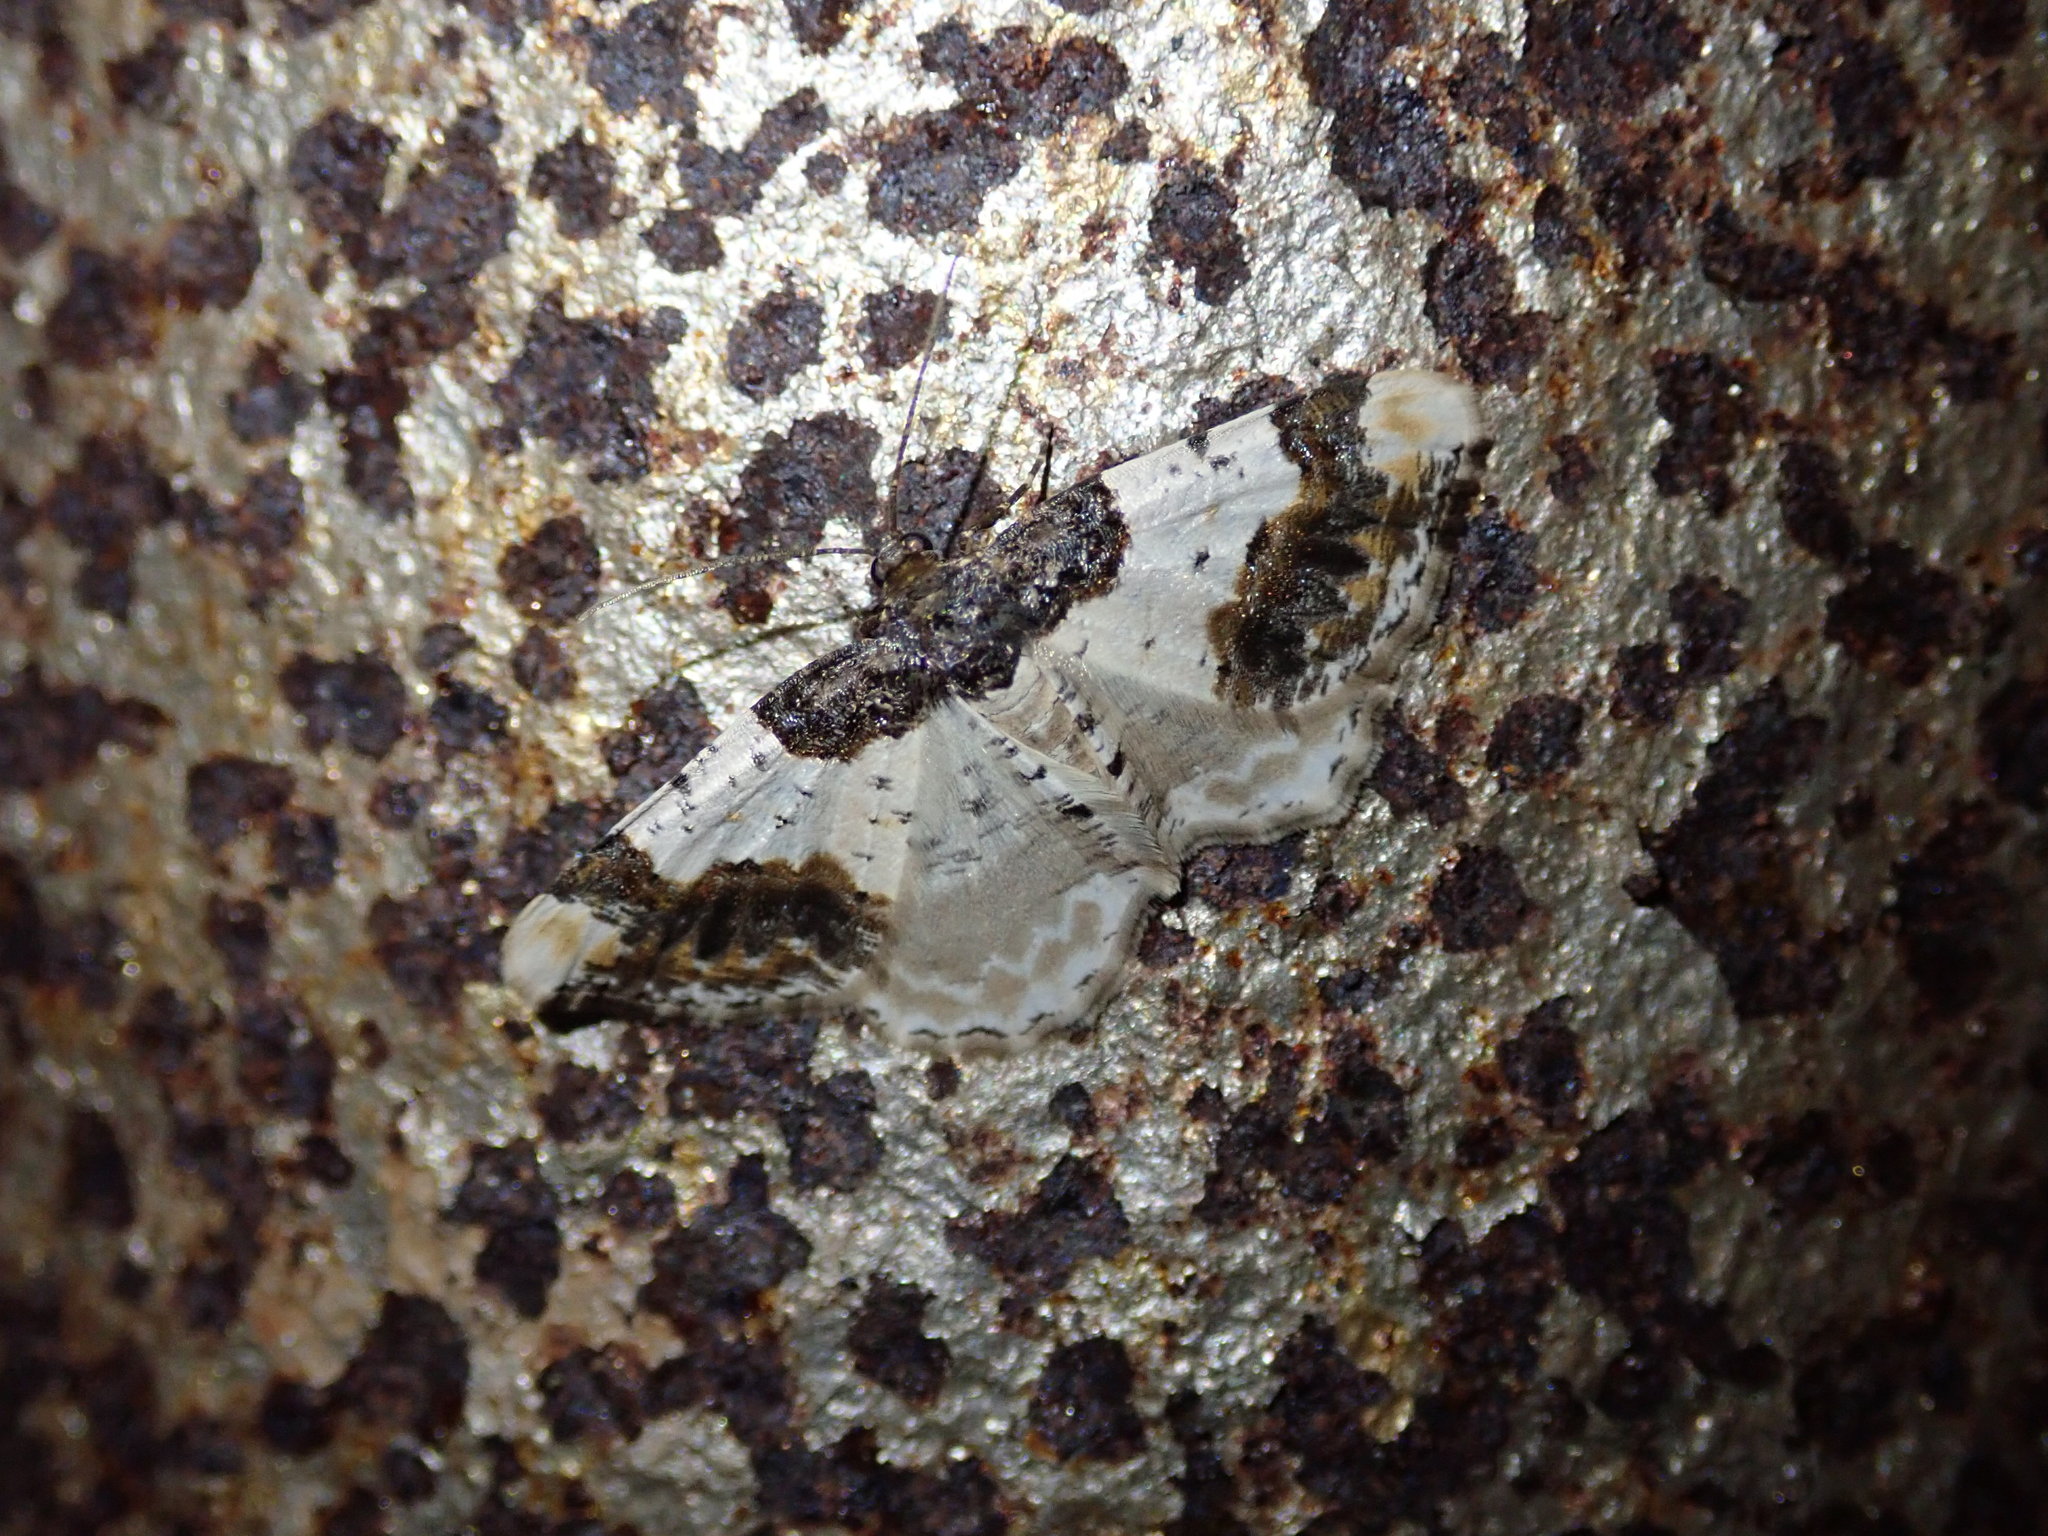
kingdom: Animalia
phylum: Arthropoda
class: Insecta
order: Lepidoptera
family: Geometridae
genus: Ligdia
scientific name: Ligdia adustata
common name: Scorched carpet
